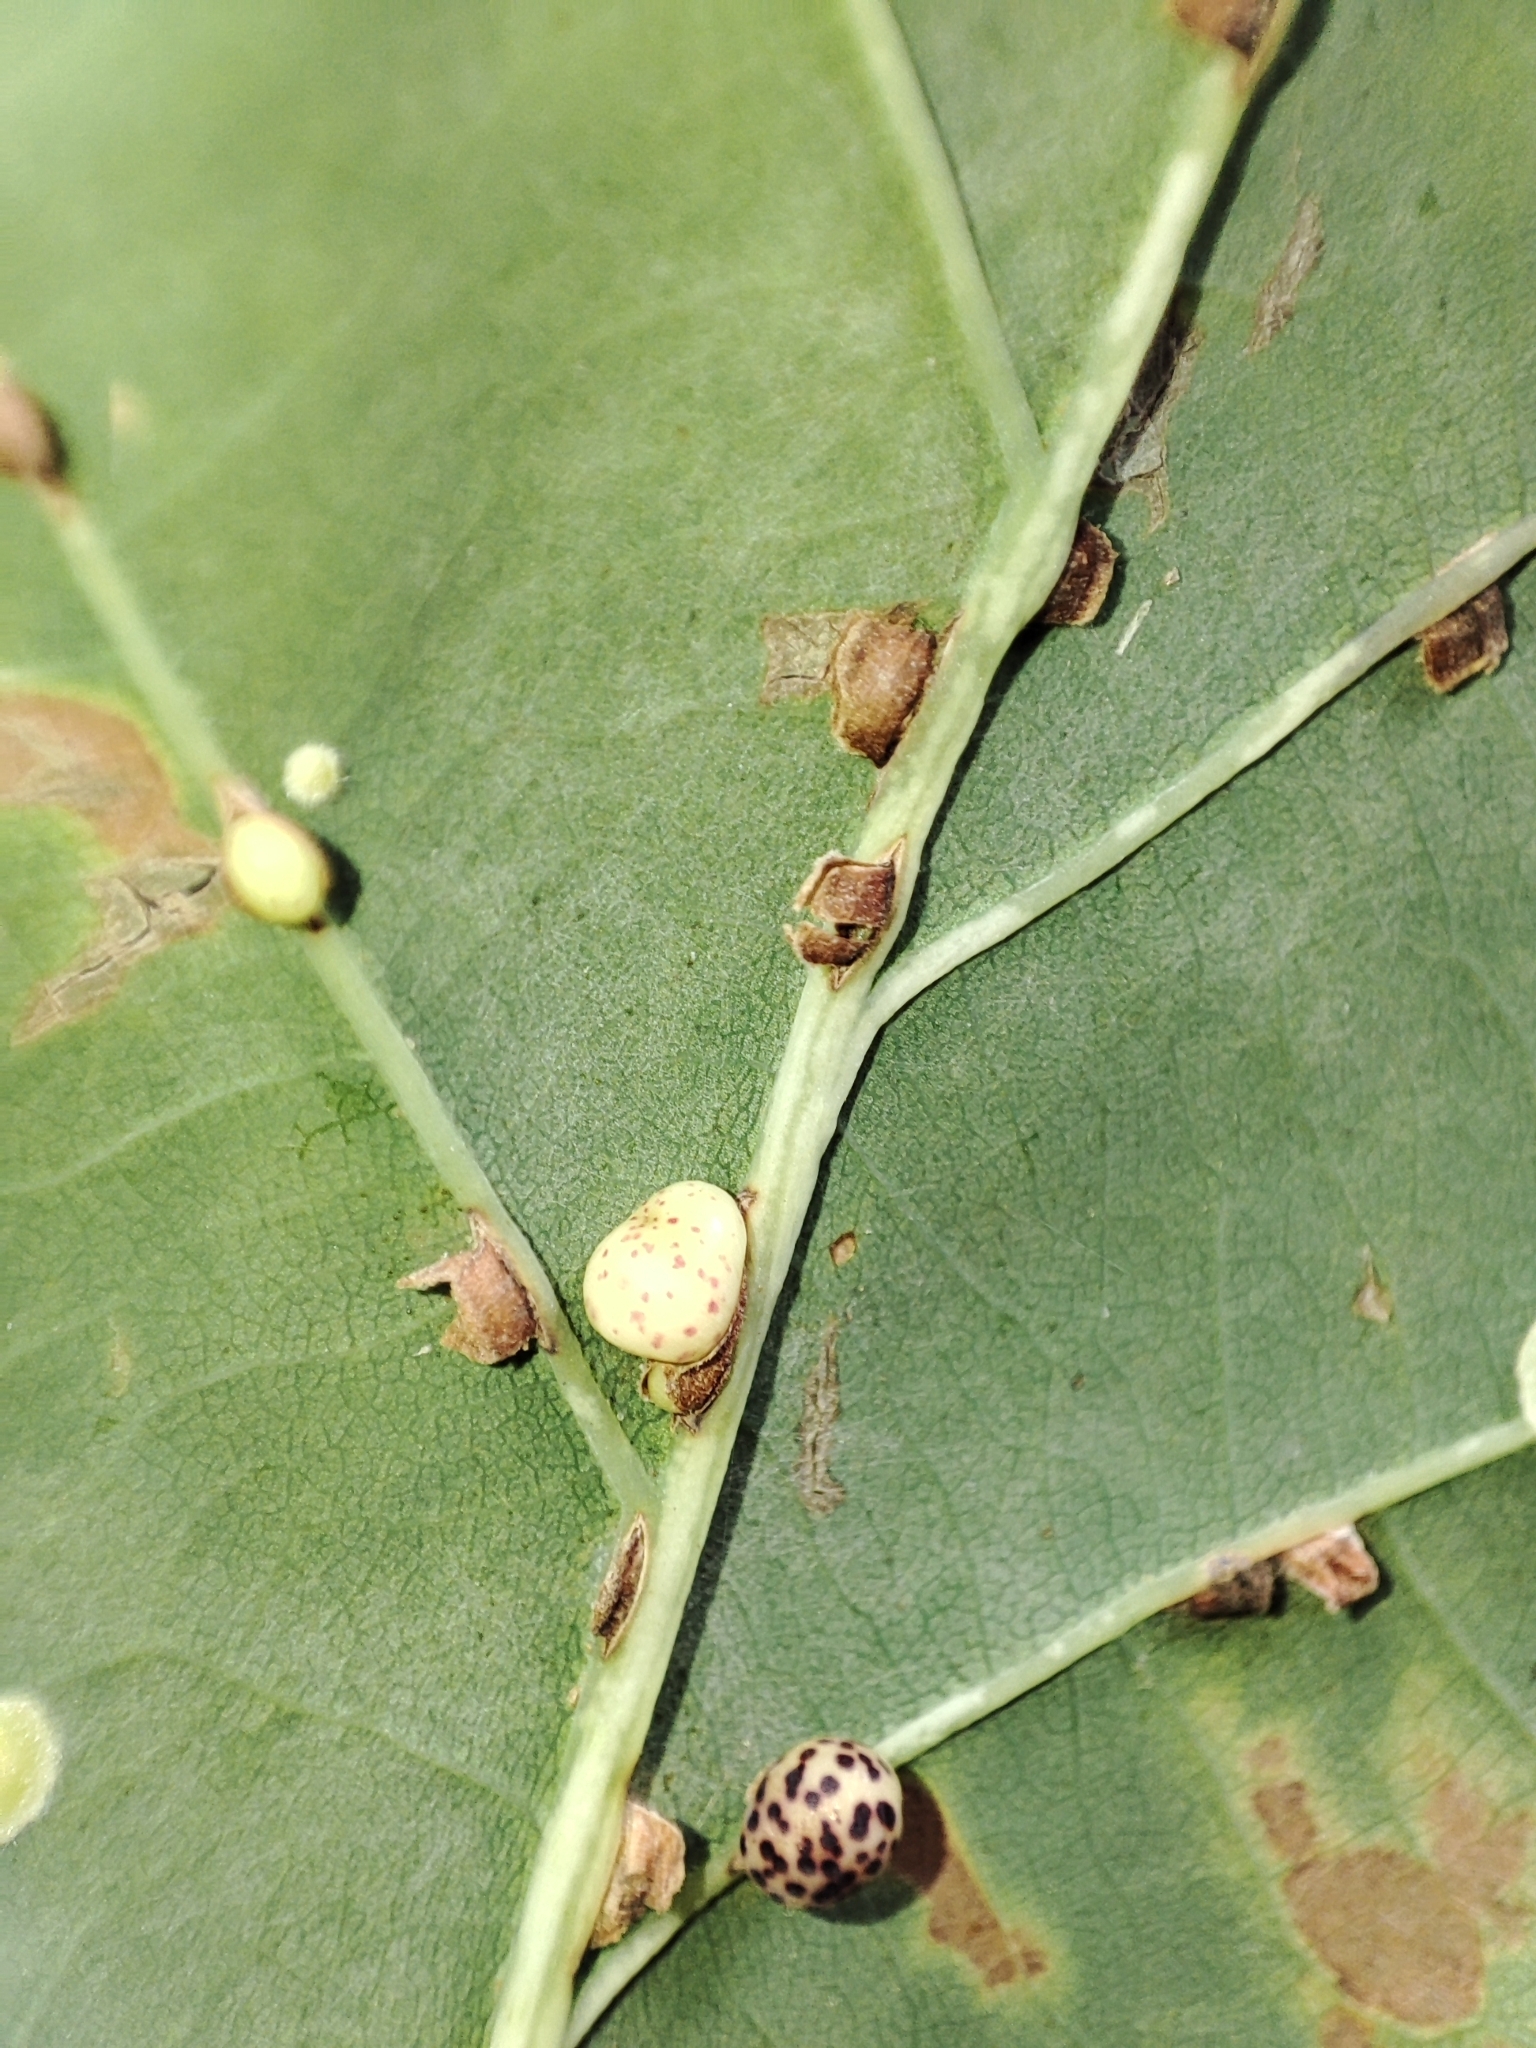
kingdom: Animalia
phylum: Arthropoda
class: Insecta
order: Hymenoptera
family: Cynipidae
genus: Neuroterus
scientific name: Neuroterus anthracinus
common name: Oyster gall
